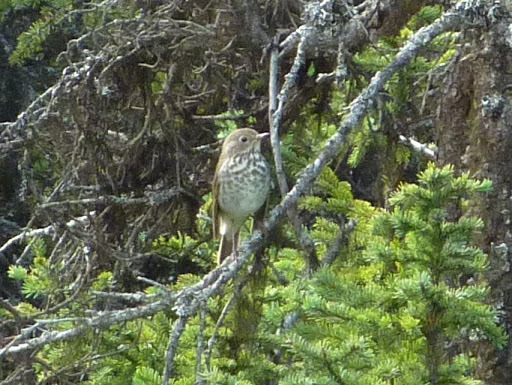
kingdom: Animalia
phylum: Chordata
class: Aves
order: Passeriformes
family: Turdidae
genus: Catharus
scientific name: Catharus
